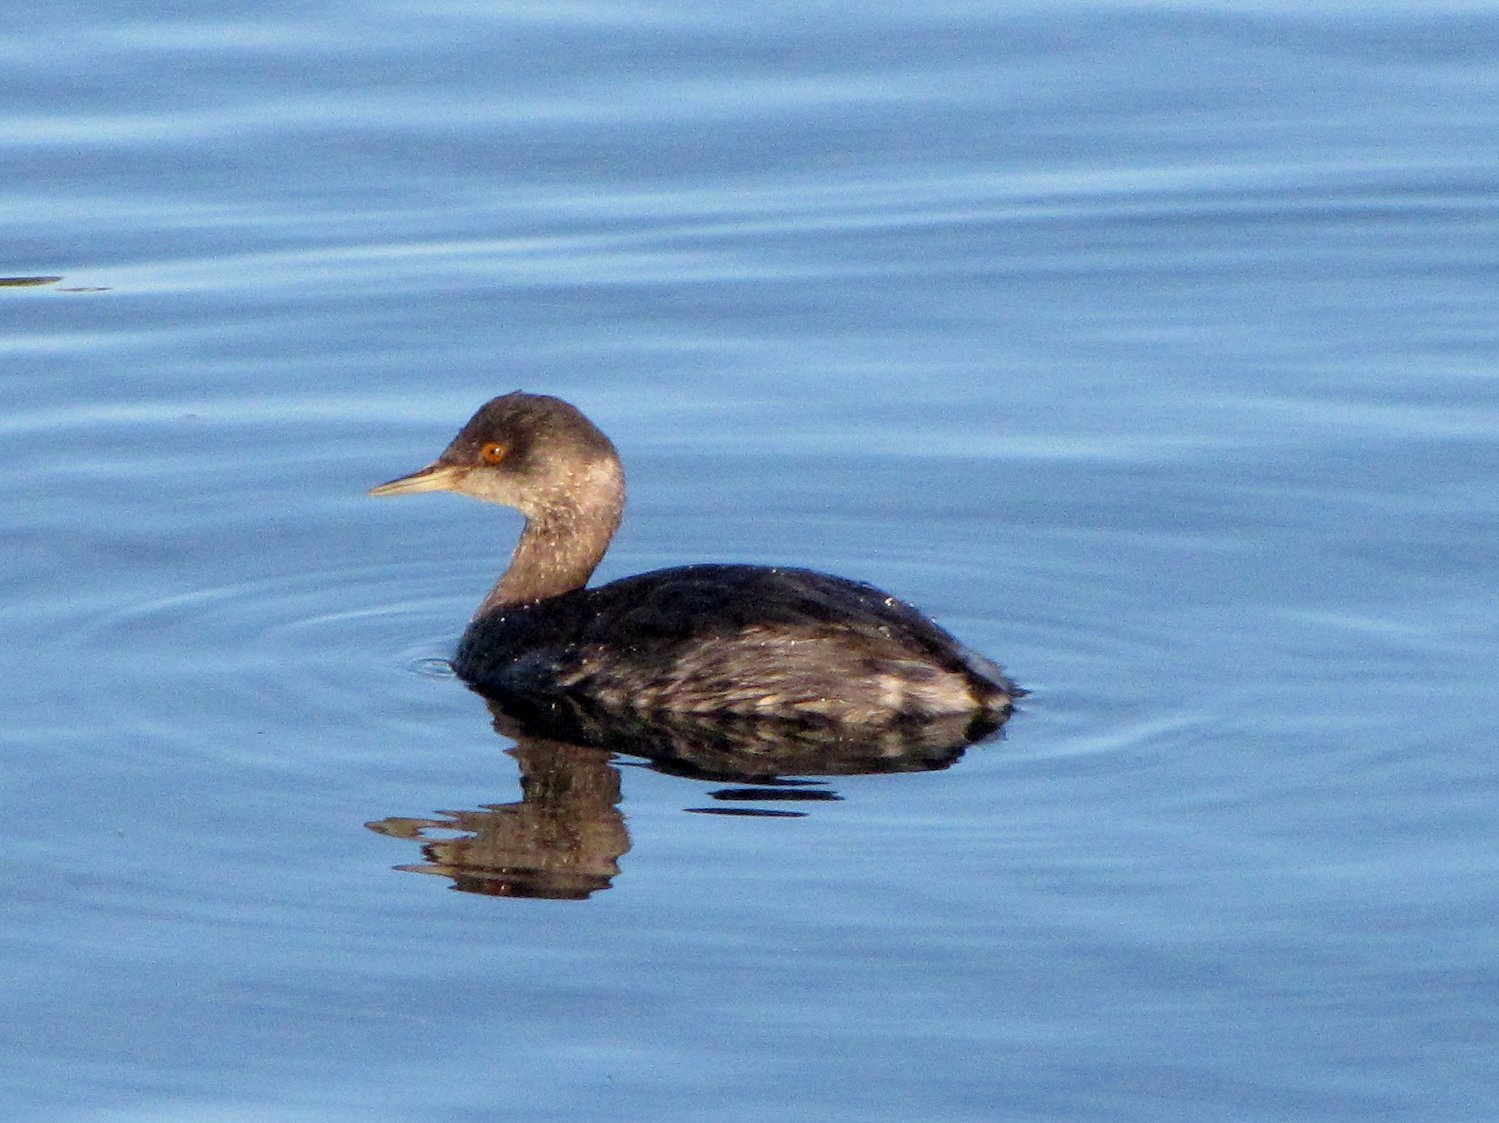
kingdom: Animalia
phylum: Chordata
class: Aves
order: Podicipediformes
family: Podicipedidae
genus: Podiceps
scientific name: Podiceps nigricollis
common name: Black-necked grebe
